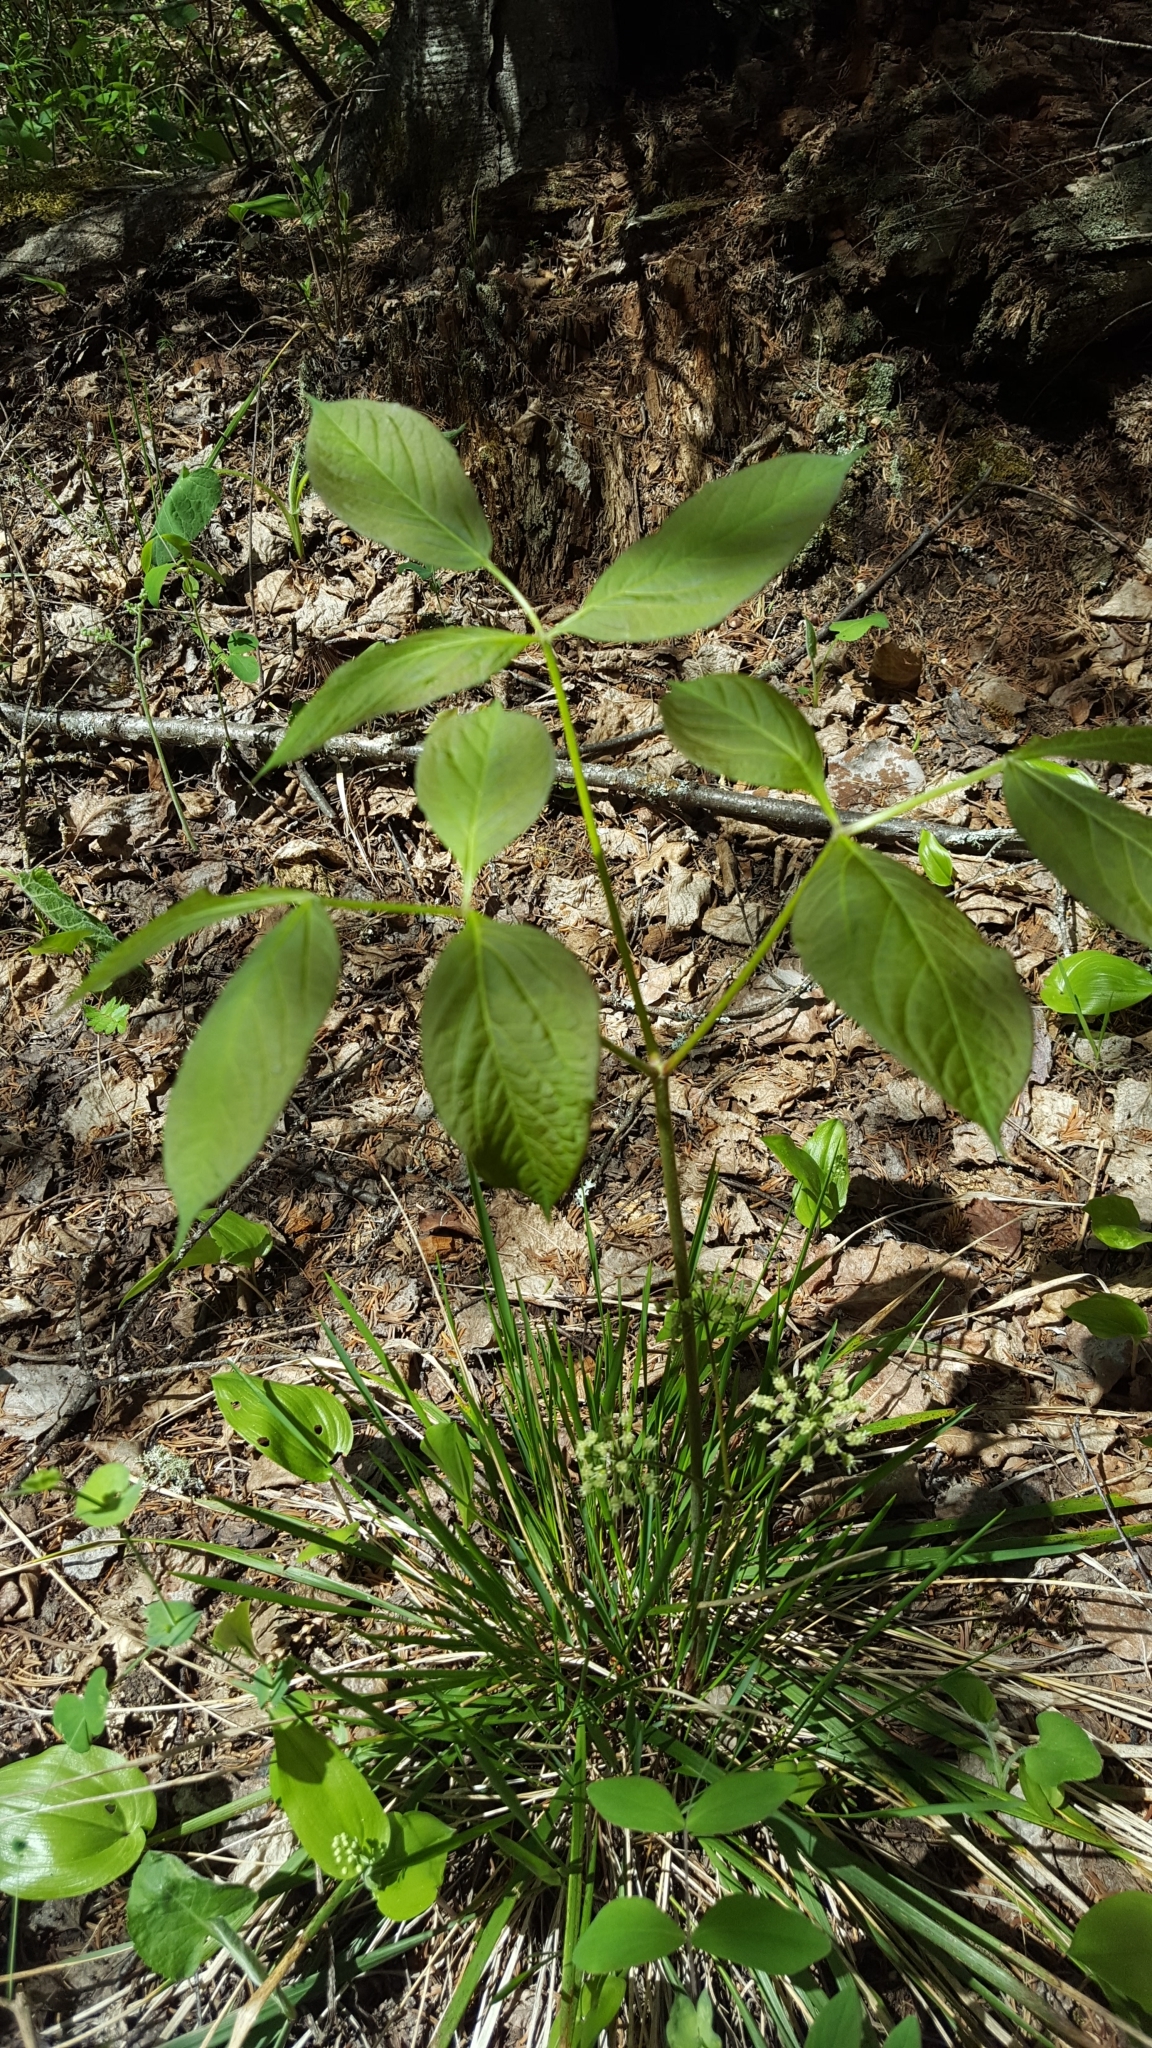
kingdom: Plantae
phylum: Tracheophyta
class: Magnoliopsida
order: Apiales
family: Araliaceae
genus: Aralia
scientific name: Aralia nudicaulis
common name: Wild sarsaparilla
